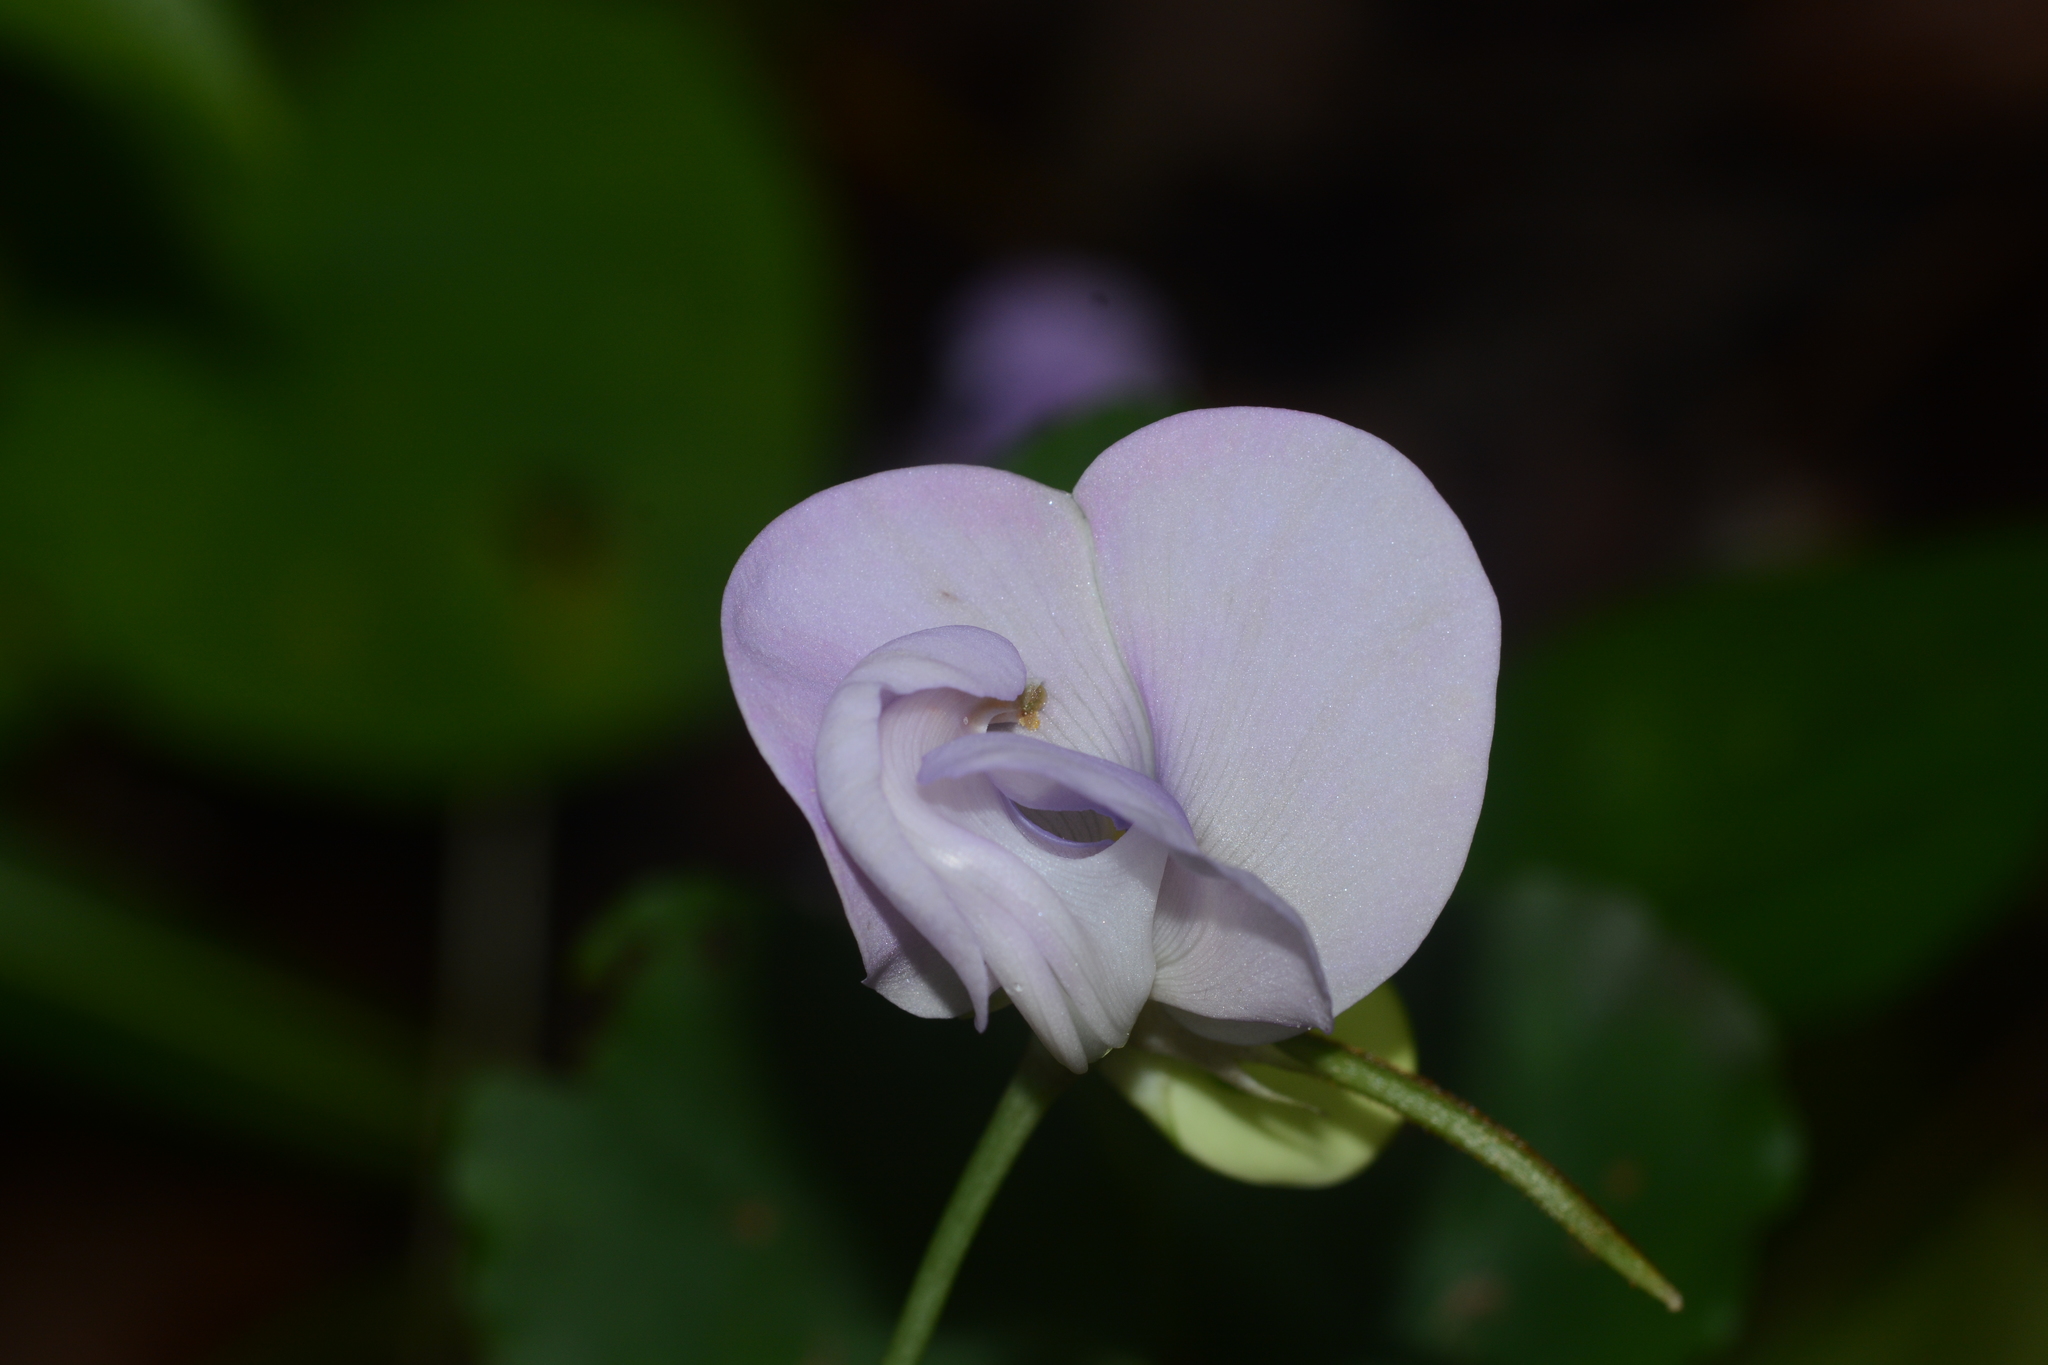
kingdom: Plantae
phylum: Tracheophyta
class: Magnoliopsida
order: Fabales
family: Fabaceae
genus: Vigna
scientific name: Vigna vexillata
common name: Zombi pea
